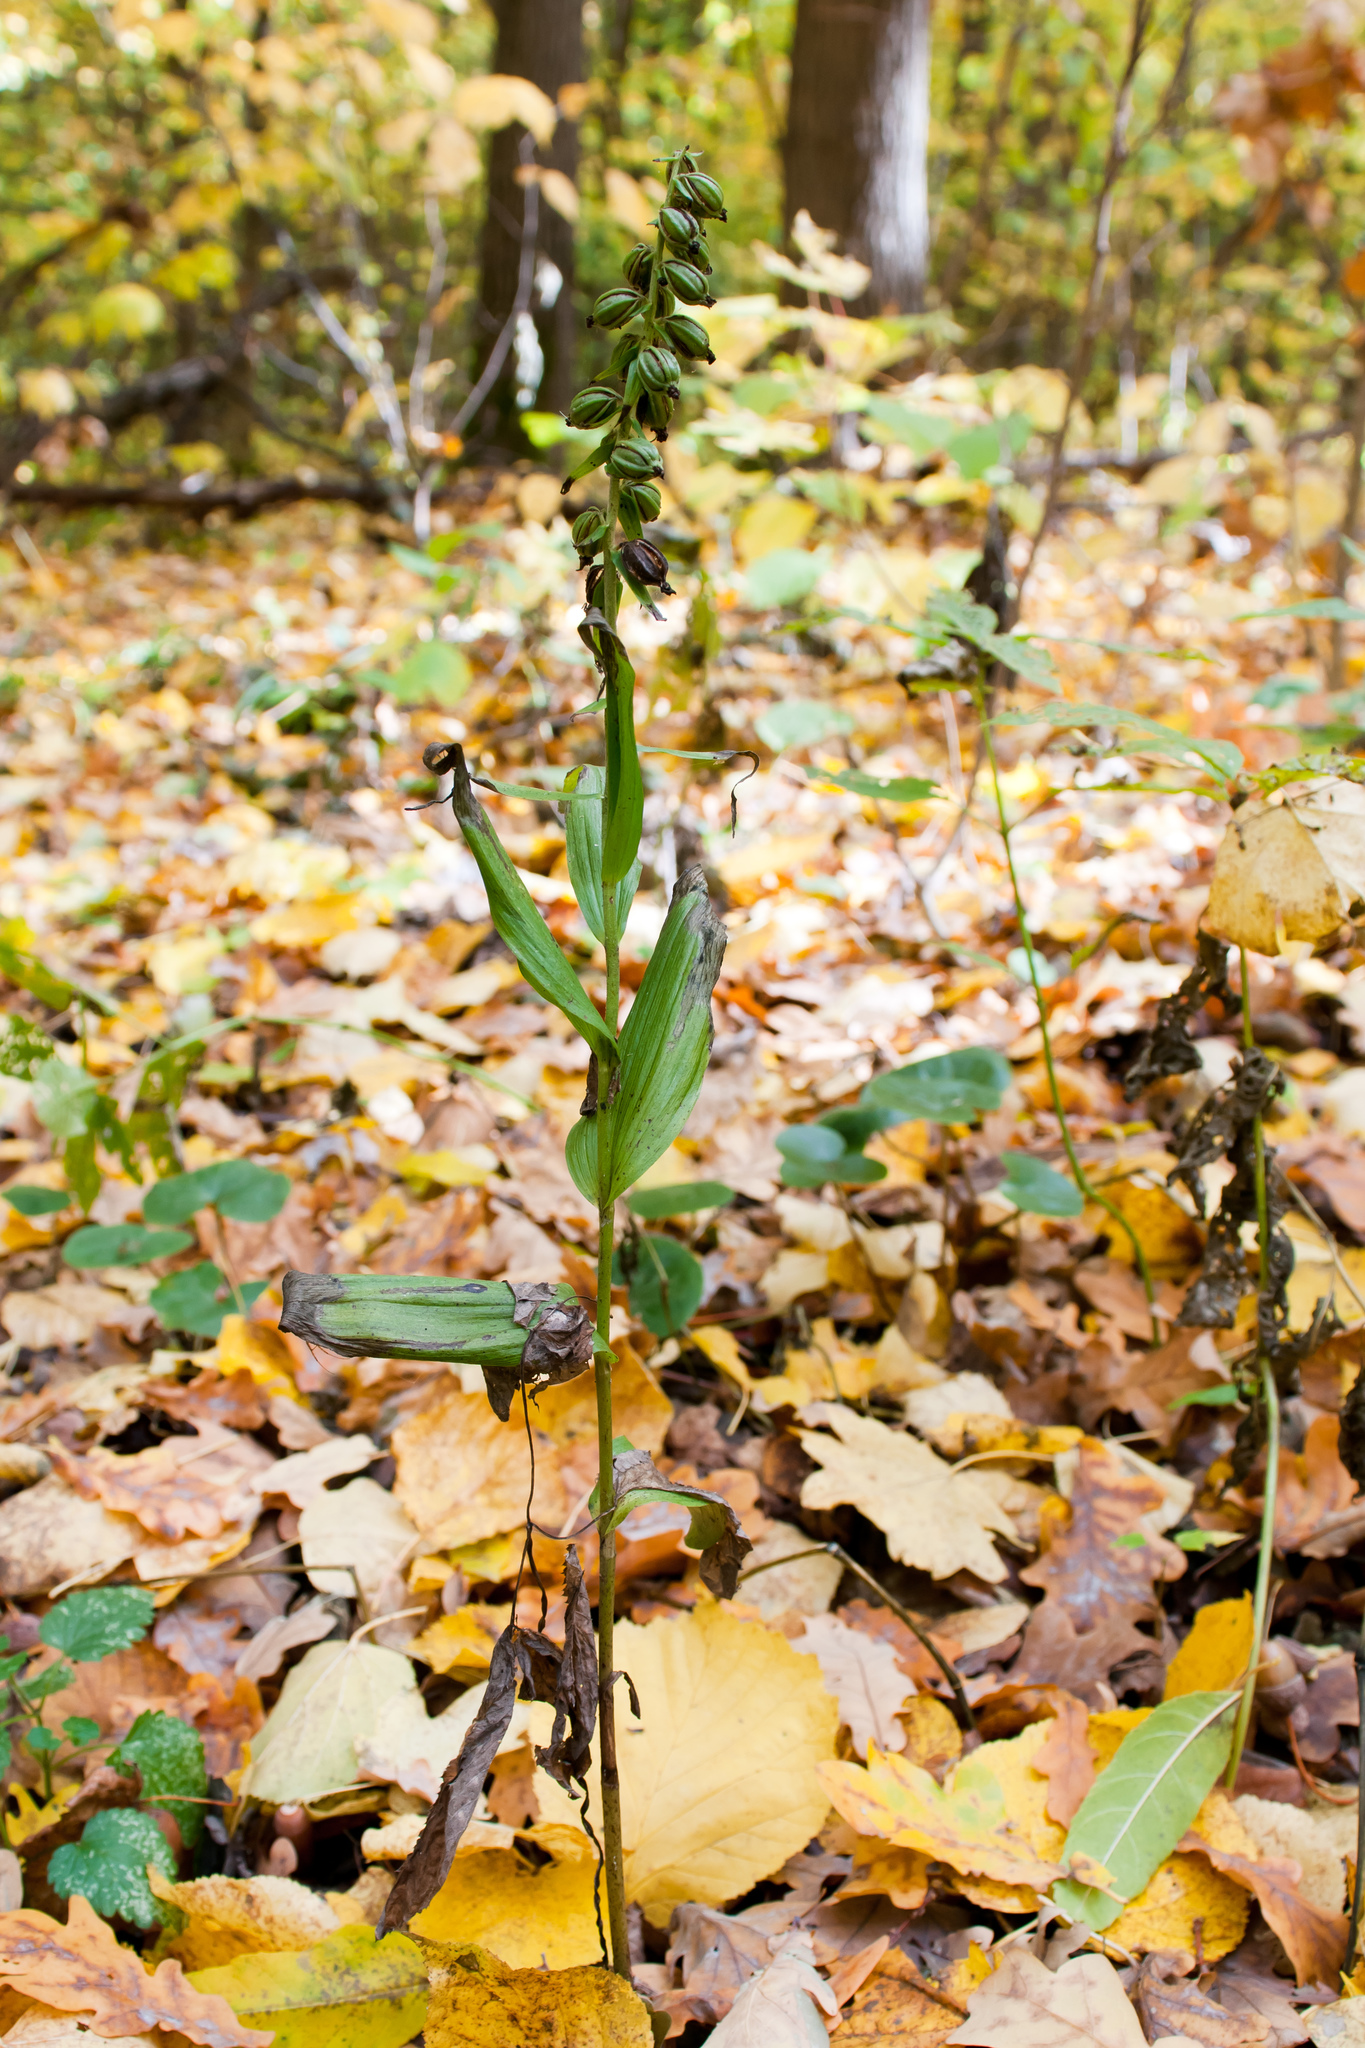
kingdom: Plantae
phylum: Tracheophyta
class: Liliopsida
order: Asparagales
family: Orchidaceae
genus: Epipactis
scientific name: Epipactis helleborine
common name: Broad-leaved helleborine
